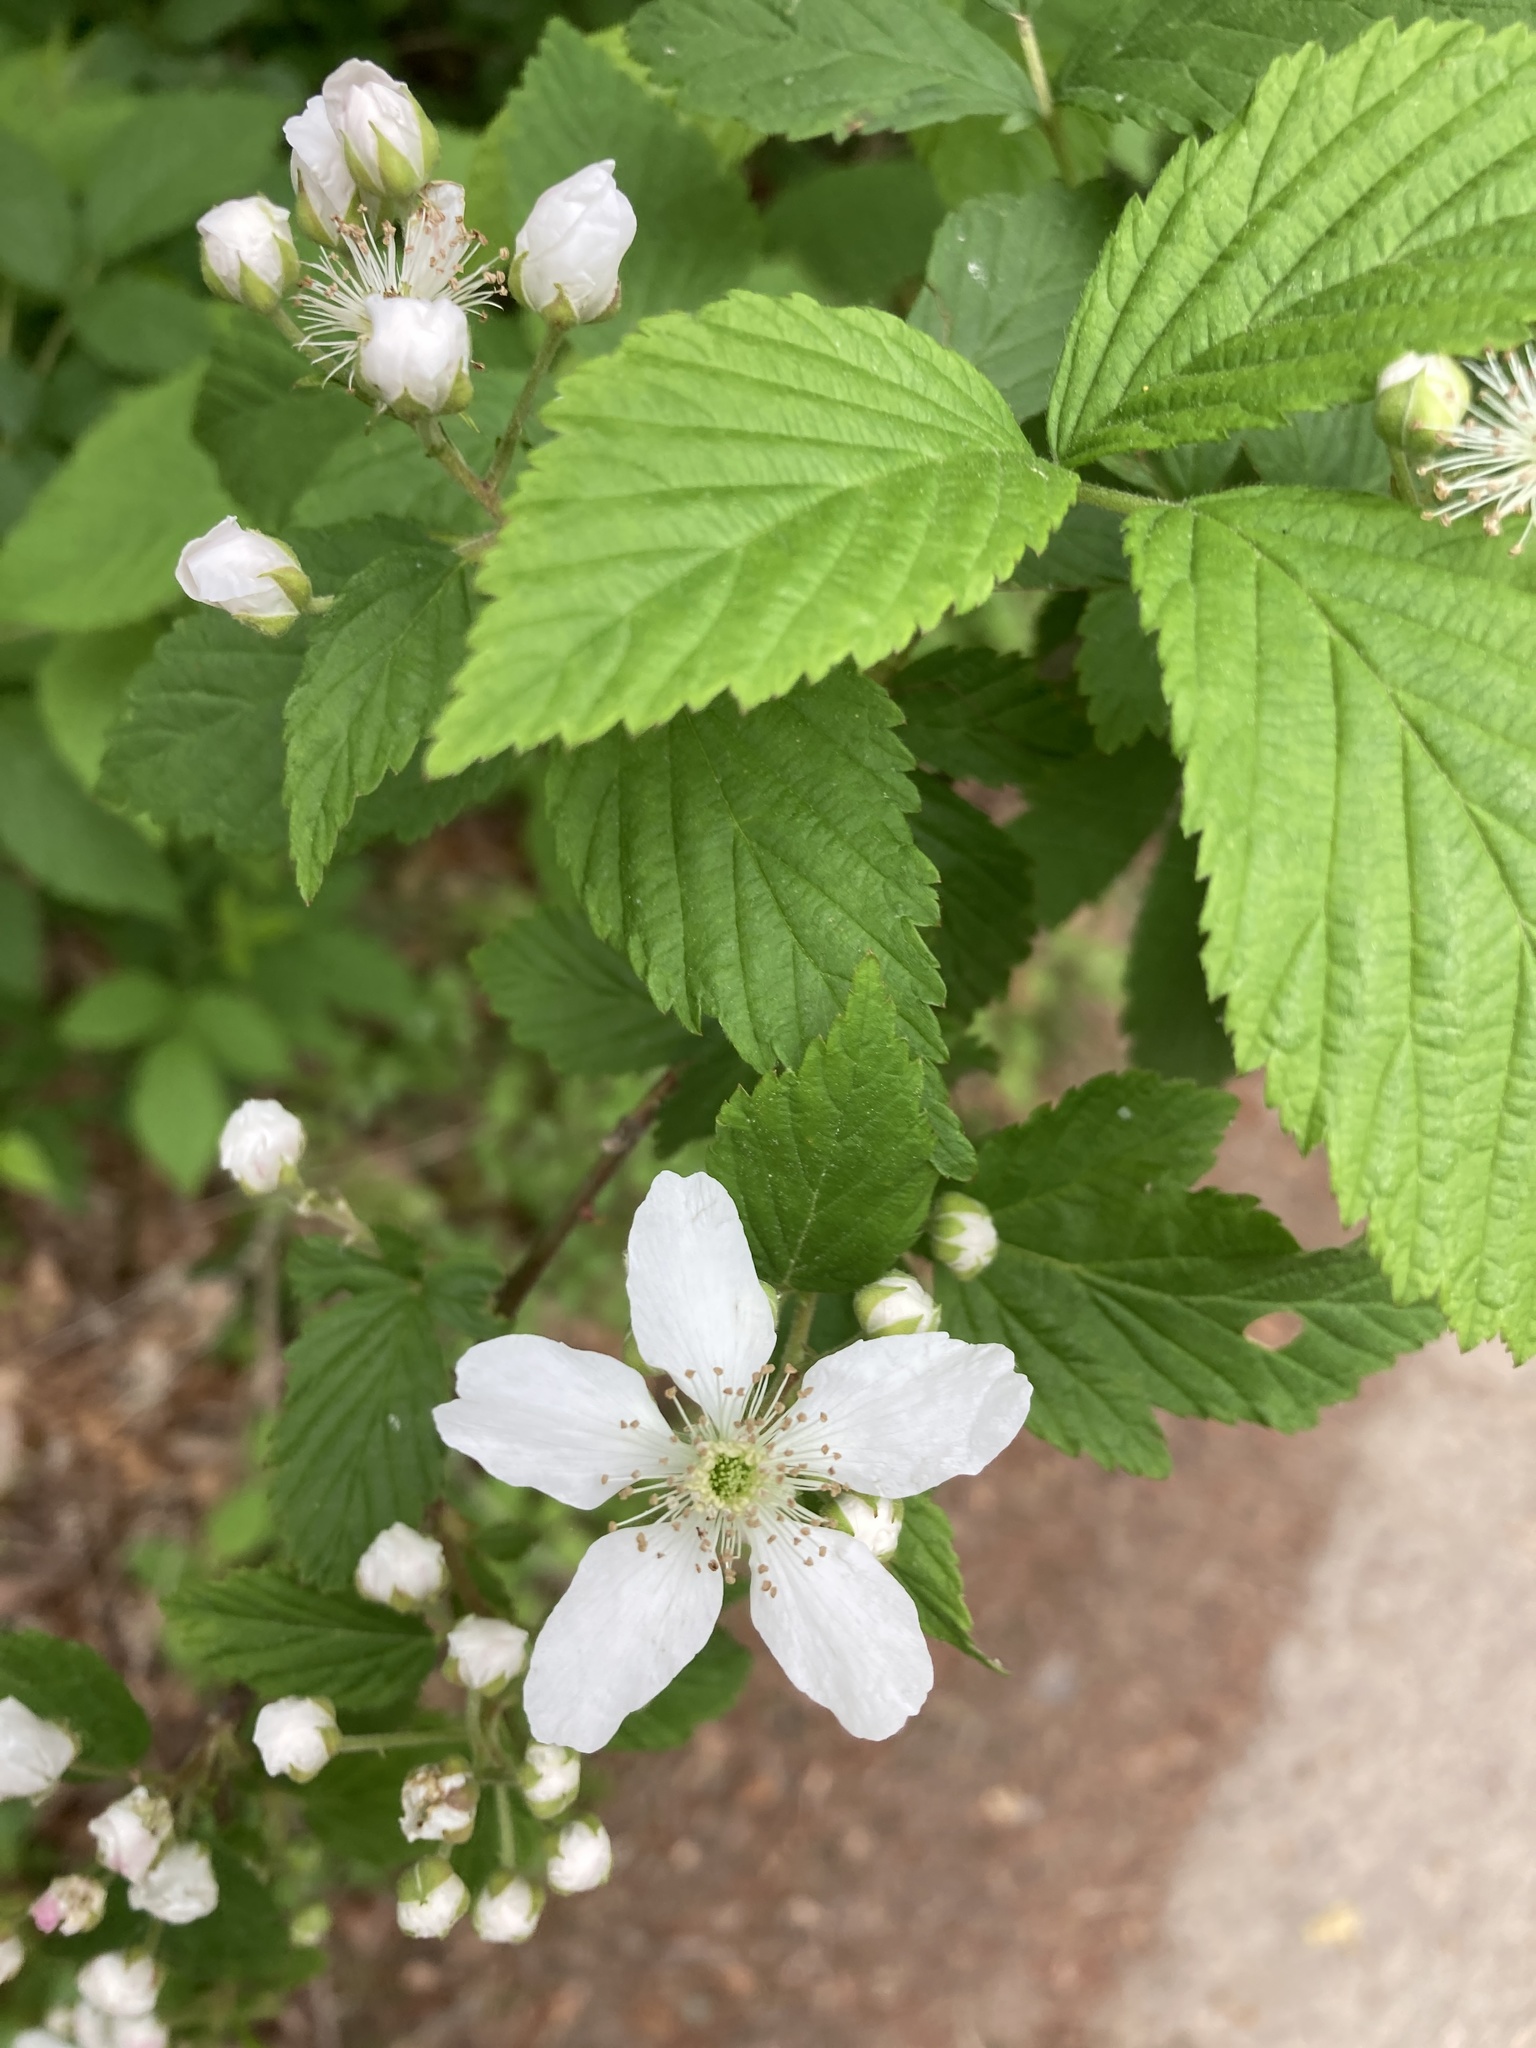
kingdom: Plantae
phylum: Tracheophyta
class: Magnoliopsida
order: Rosales
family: Rosaceae
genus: Rubus
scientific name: Rubus allegheniensis
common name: Allegheny blackberry
